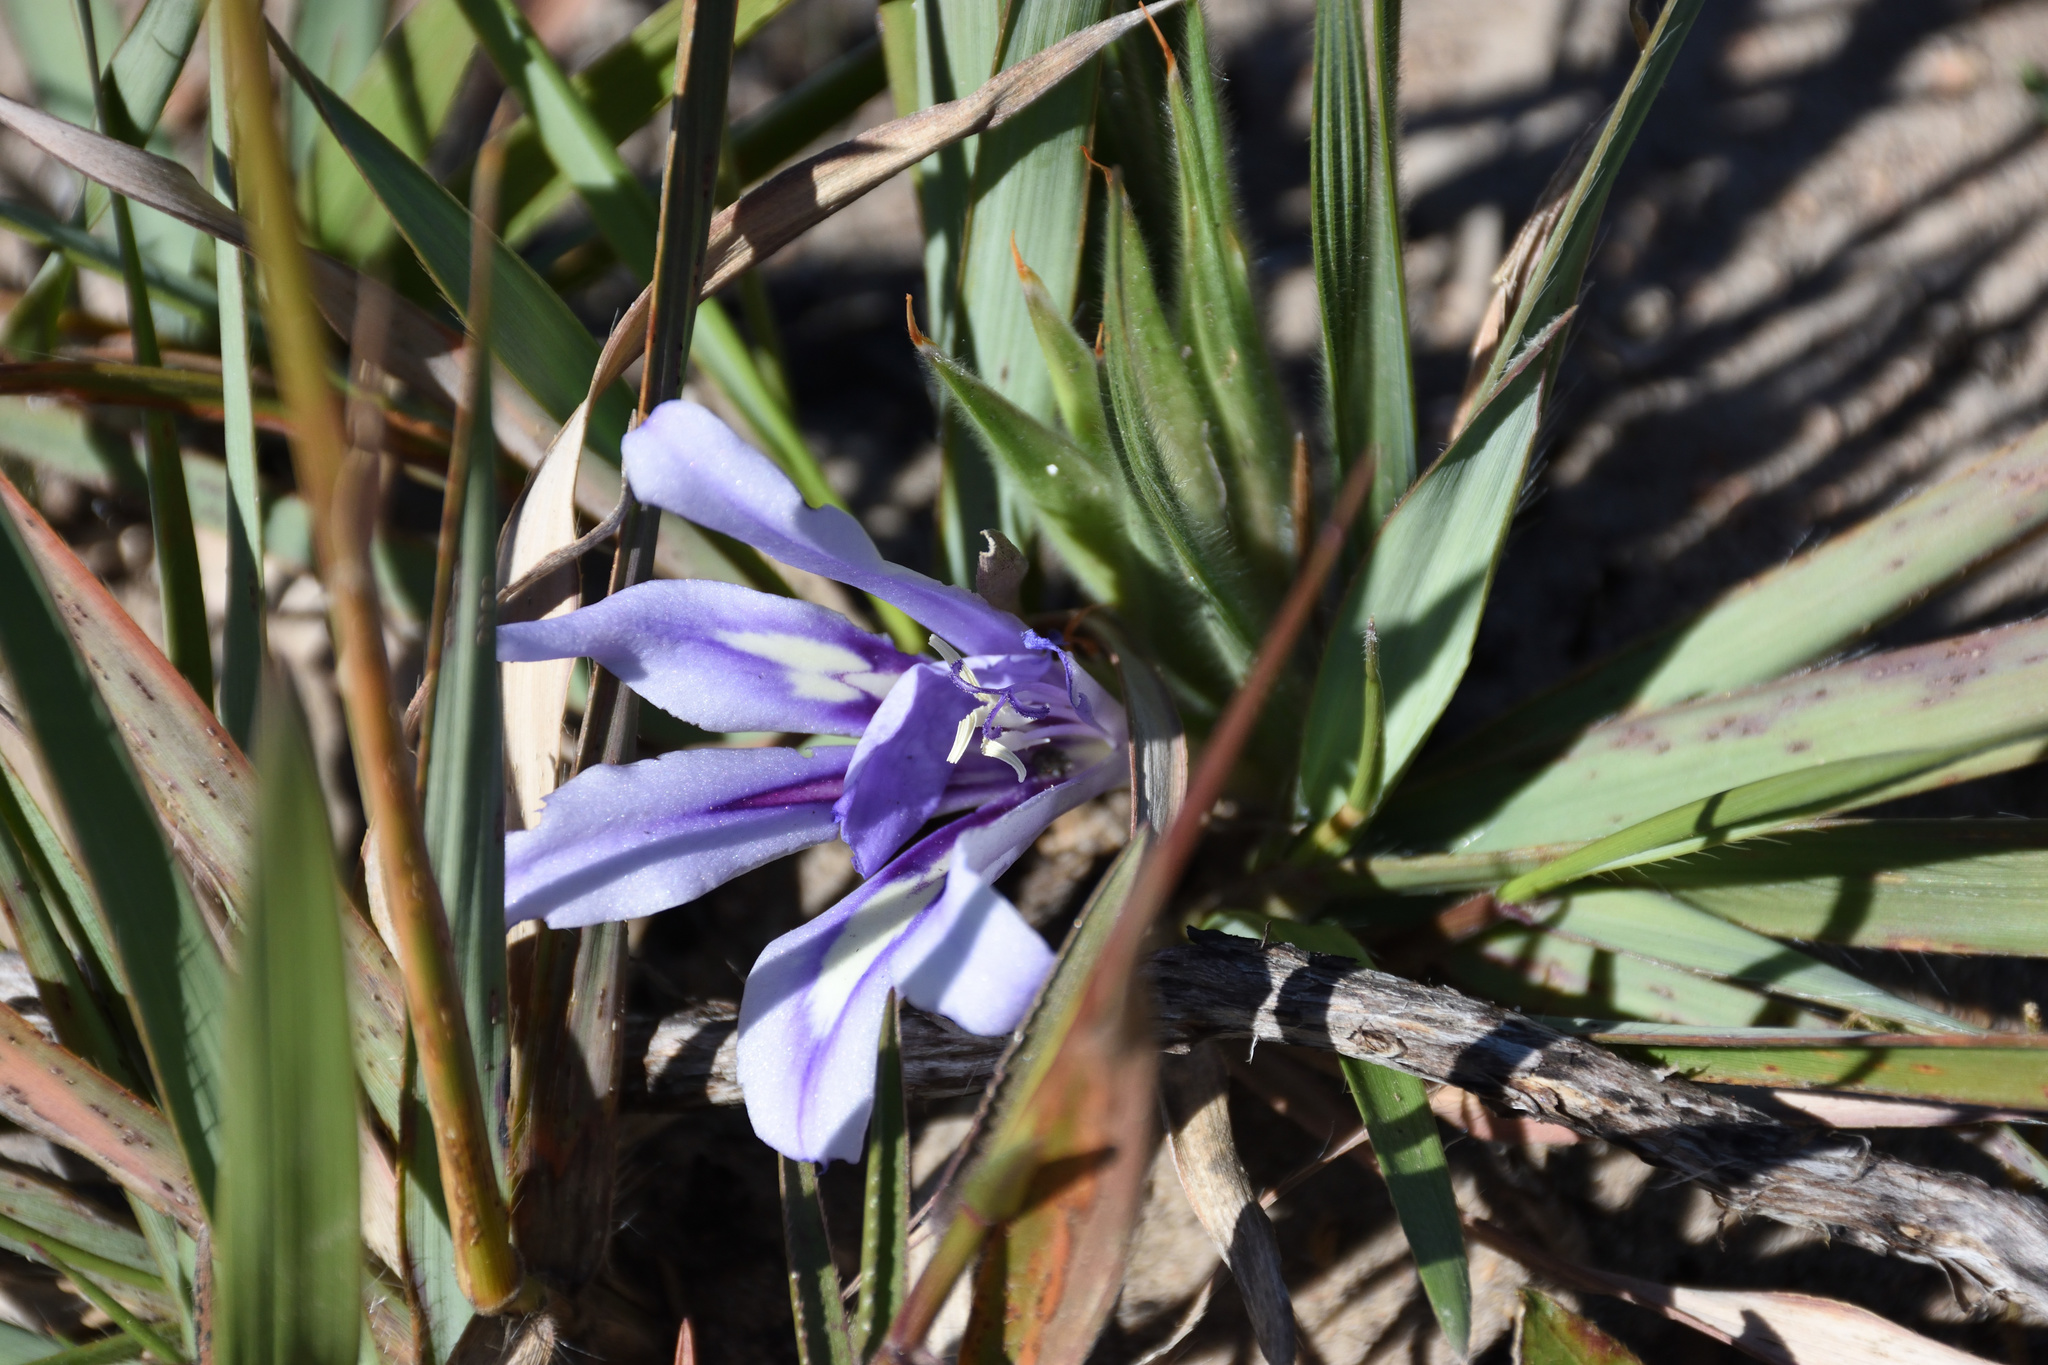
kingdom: Plantae
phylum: Tracheophyta
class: Liliopsida
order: Asparagales
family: Iridaceae
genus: Babiana
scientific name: Babiana sambucina
